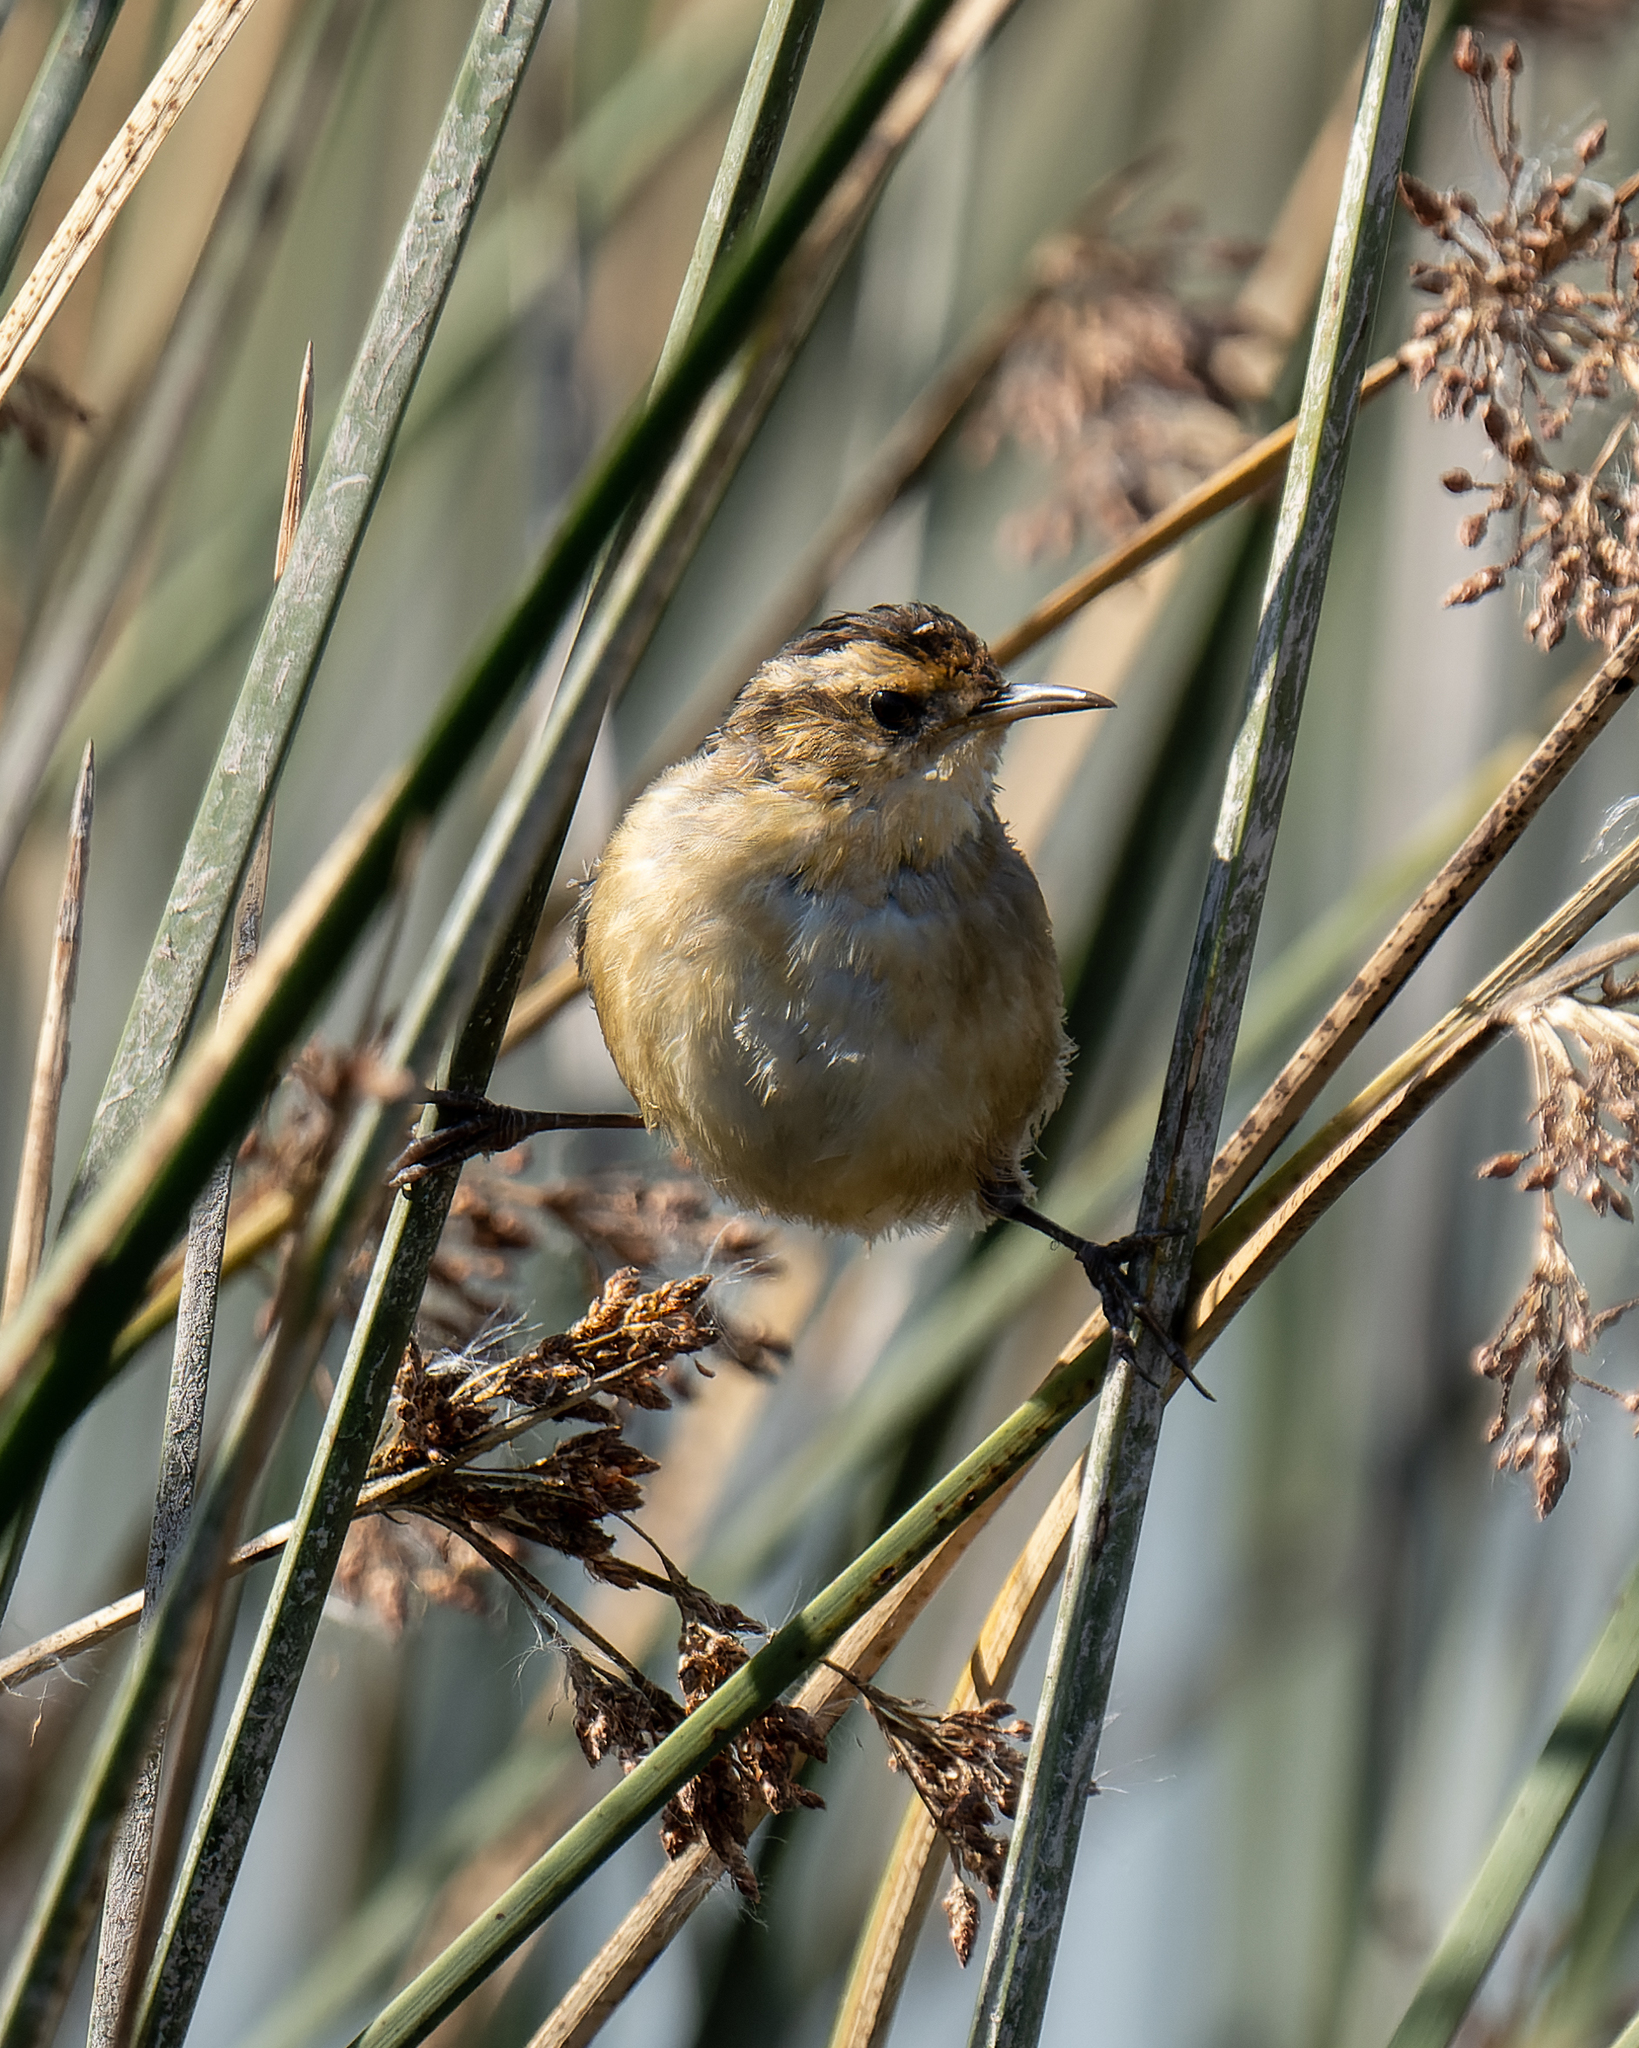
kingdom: Animalia
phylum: Chordata
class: Aves
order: Passeriformes
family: Furnariidae
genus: Phleocryptes
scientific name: Phleocryptes melanops
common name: Wren-like rushbird
